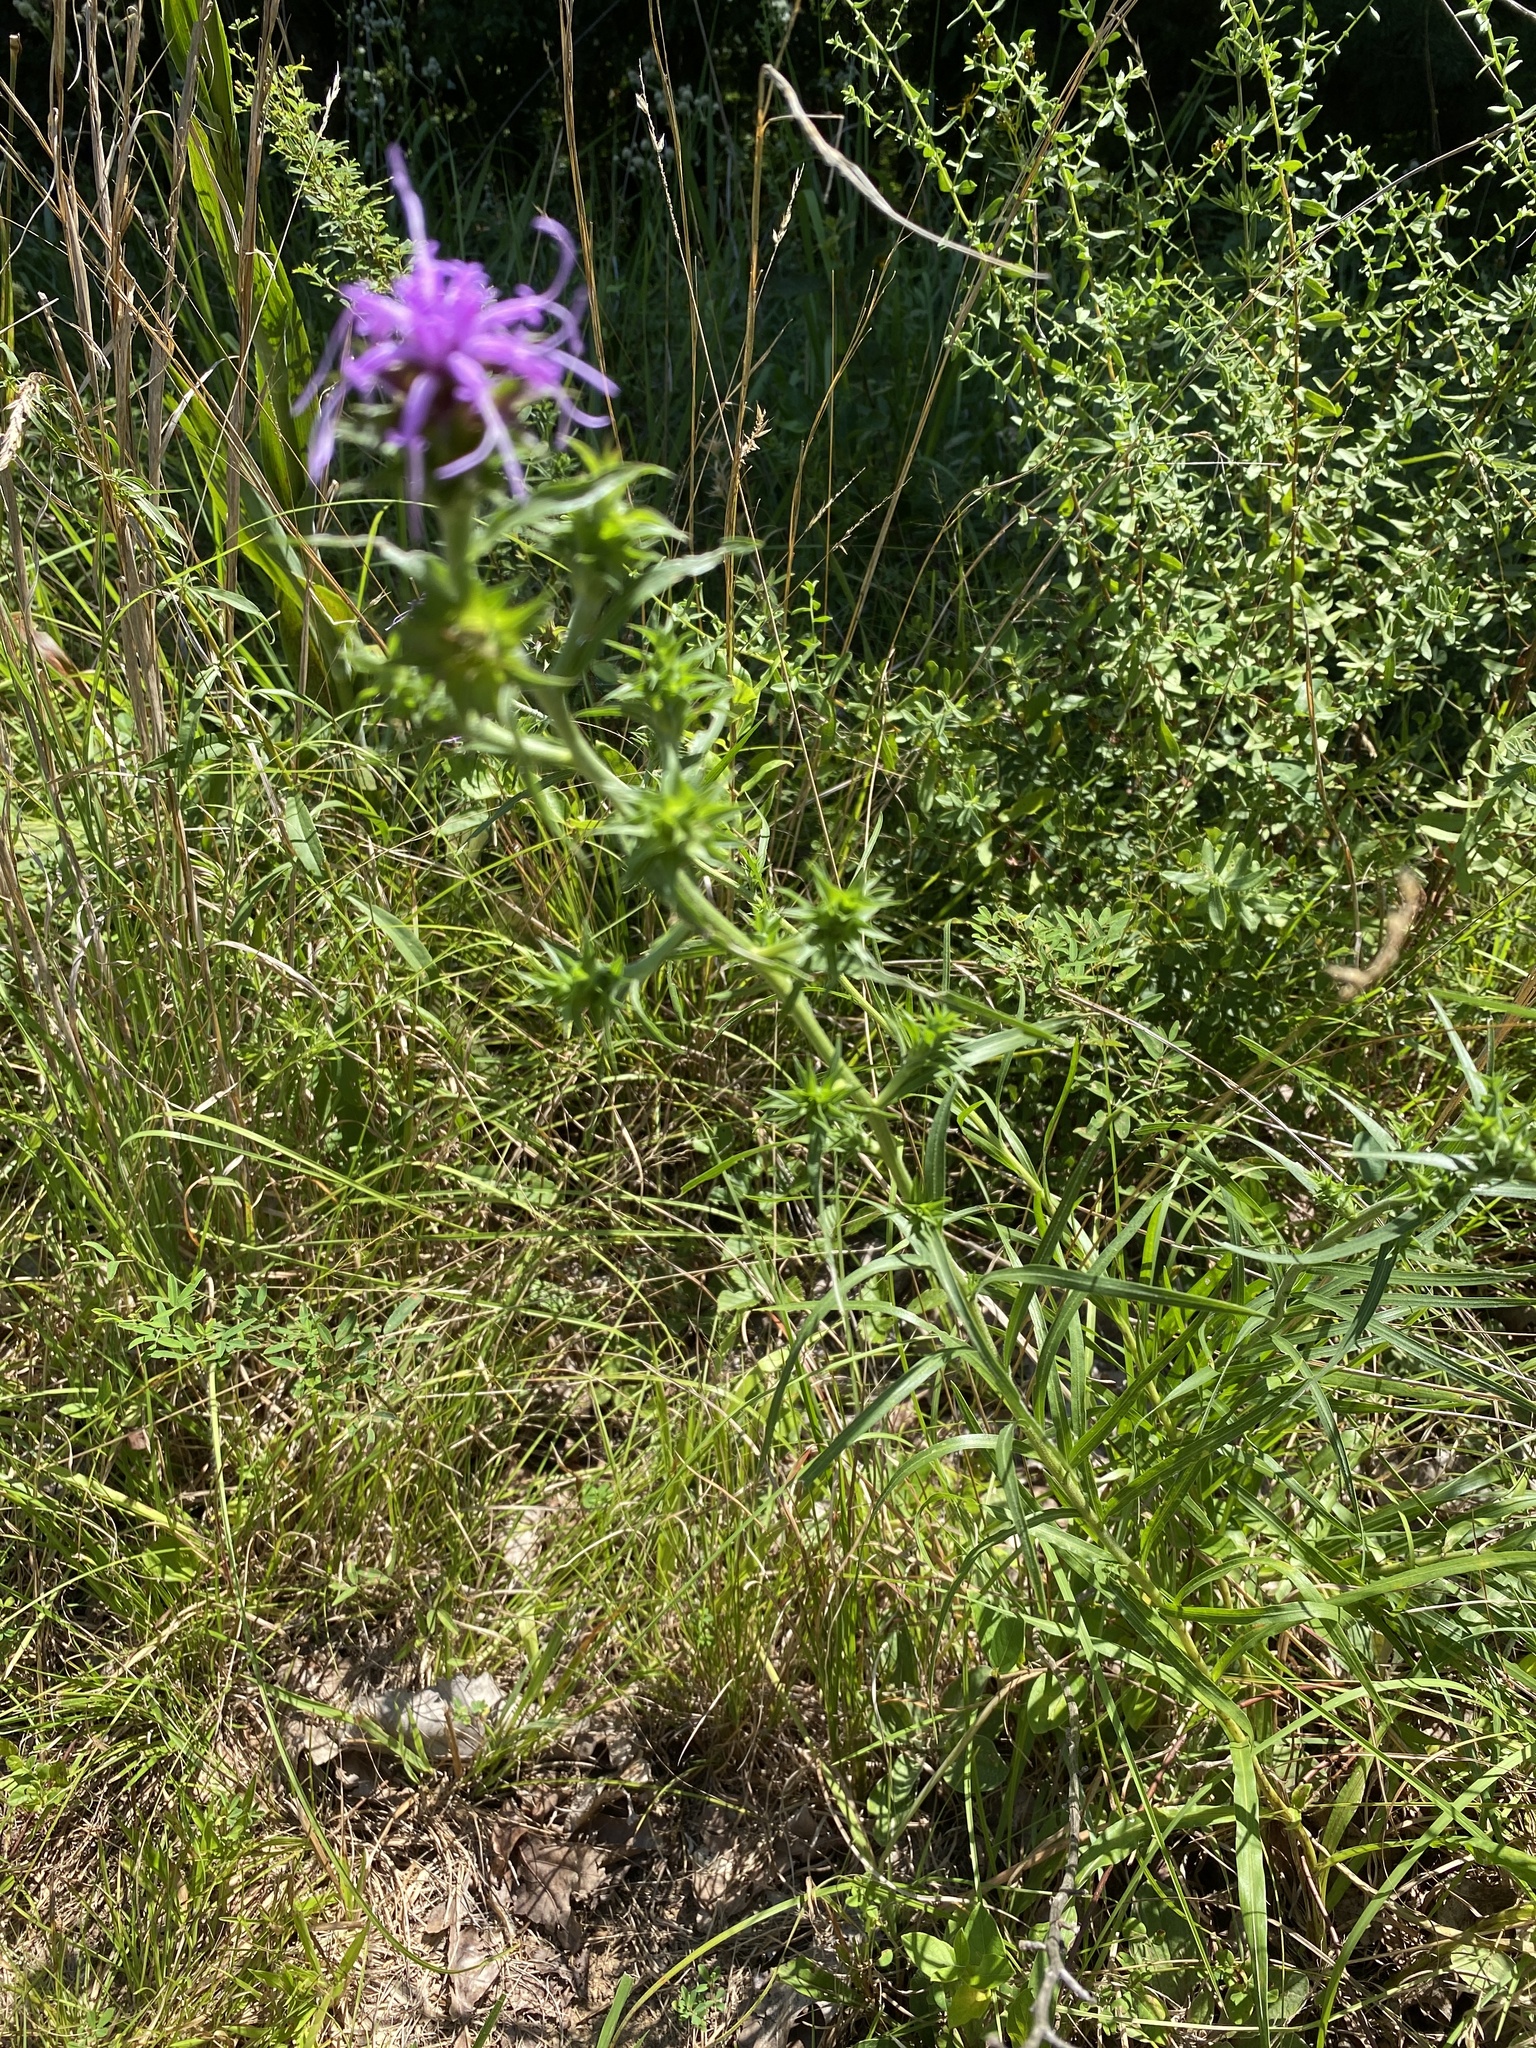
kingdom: Plantae
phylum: Tracheophyta
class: Magnoliopsida
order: Asterales
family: Asteraceae
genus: Liatris
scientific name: Liatris squarrosa
